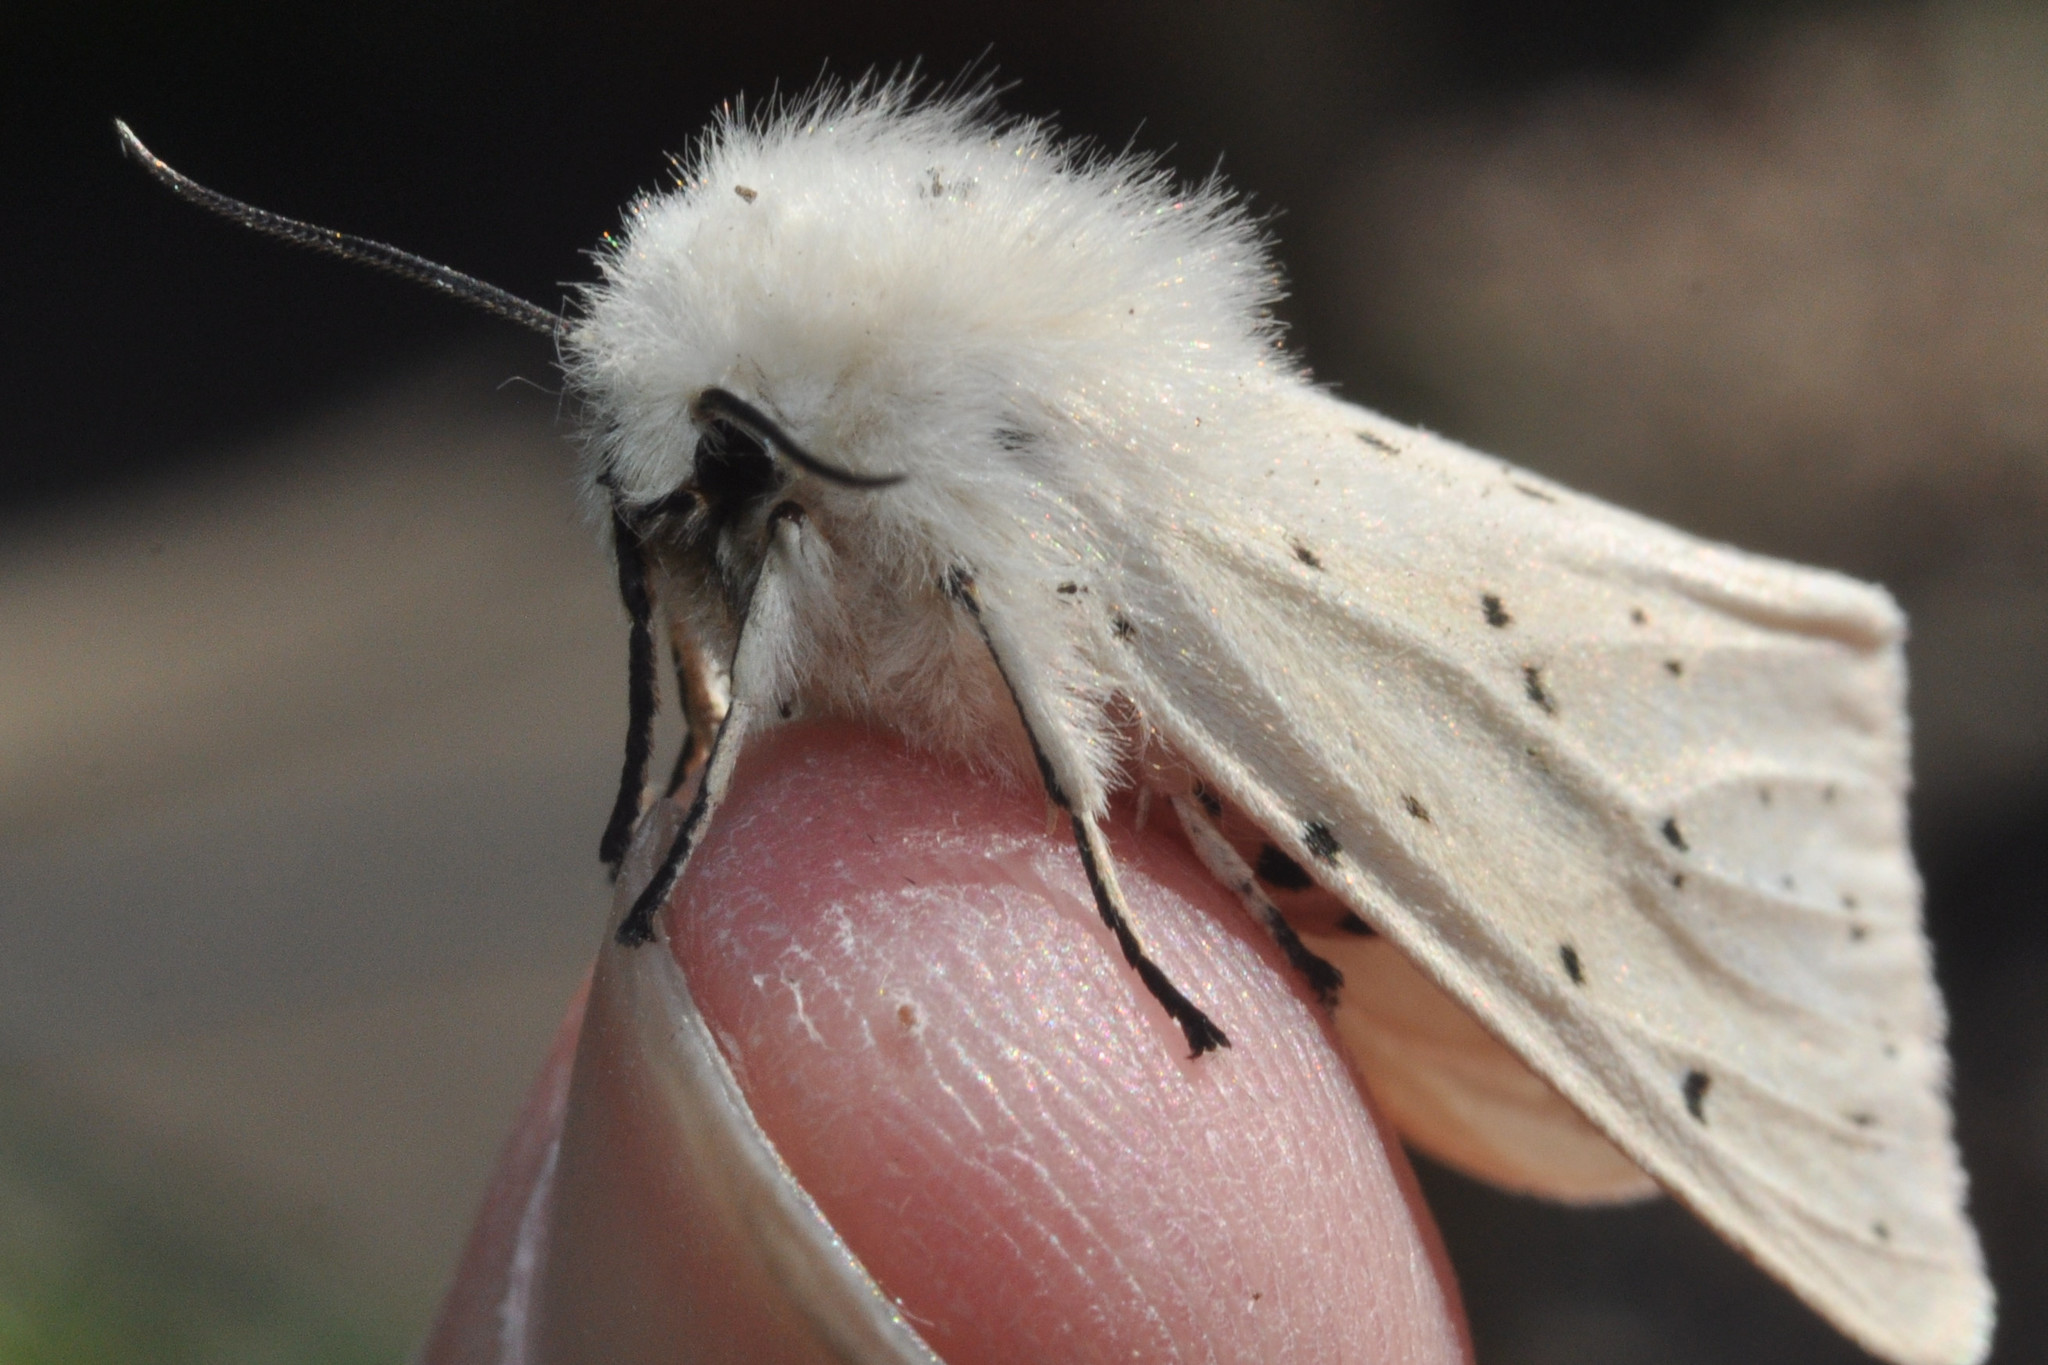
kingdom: Animalia
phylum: Arthropoda
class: Insecta
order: Lepidoptera
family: Erebidae
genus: Spilosoma
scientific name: Spilosoma lubricipeda
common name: White ermine
